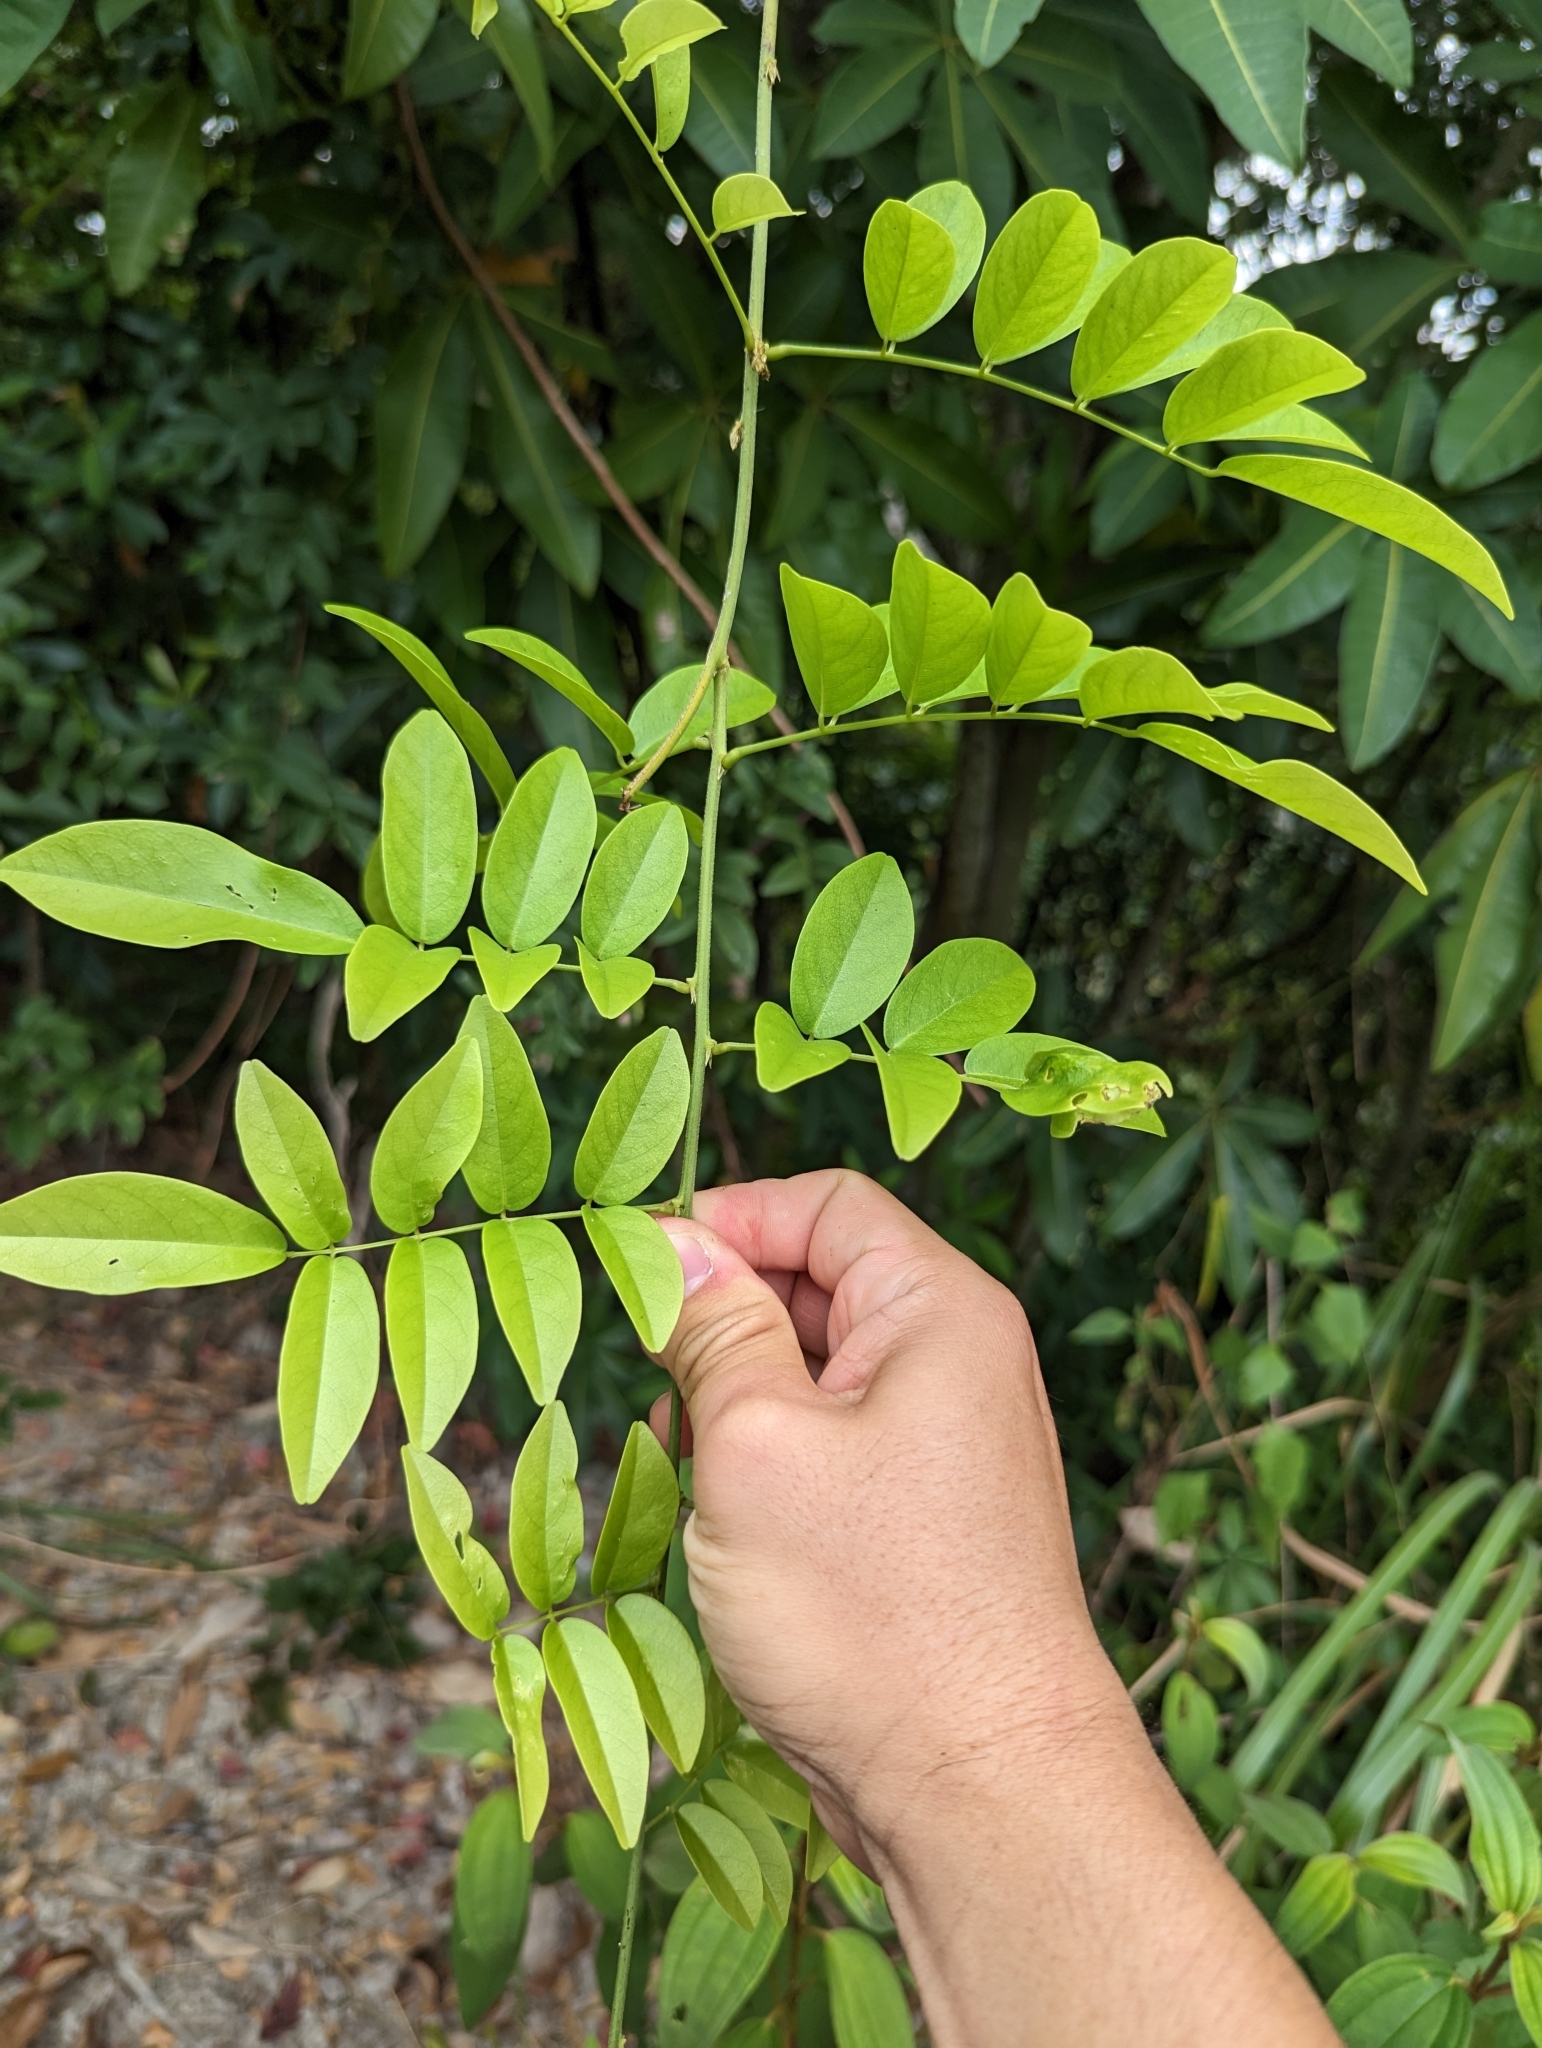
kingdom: Plantae
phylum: Tracheophyta
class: Magnoliopsida
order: Fabales
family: Fabaceae
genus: Wisteriopsis
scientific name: Wisteriopsis reticulata
